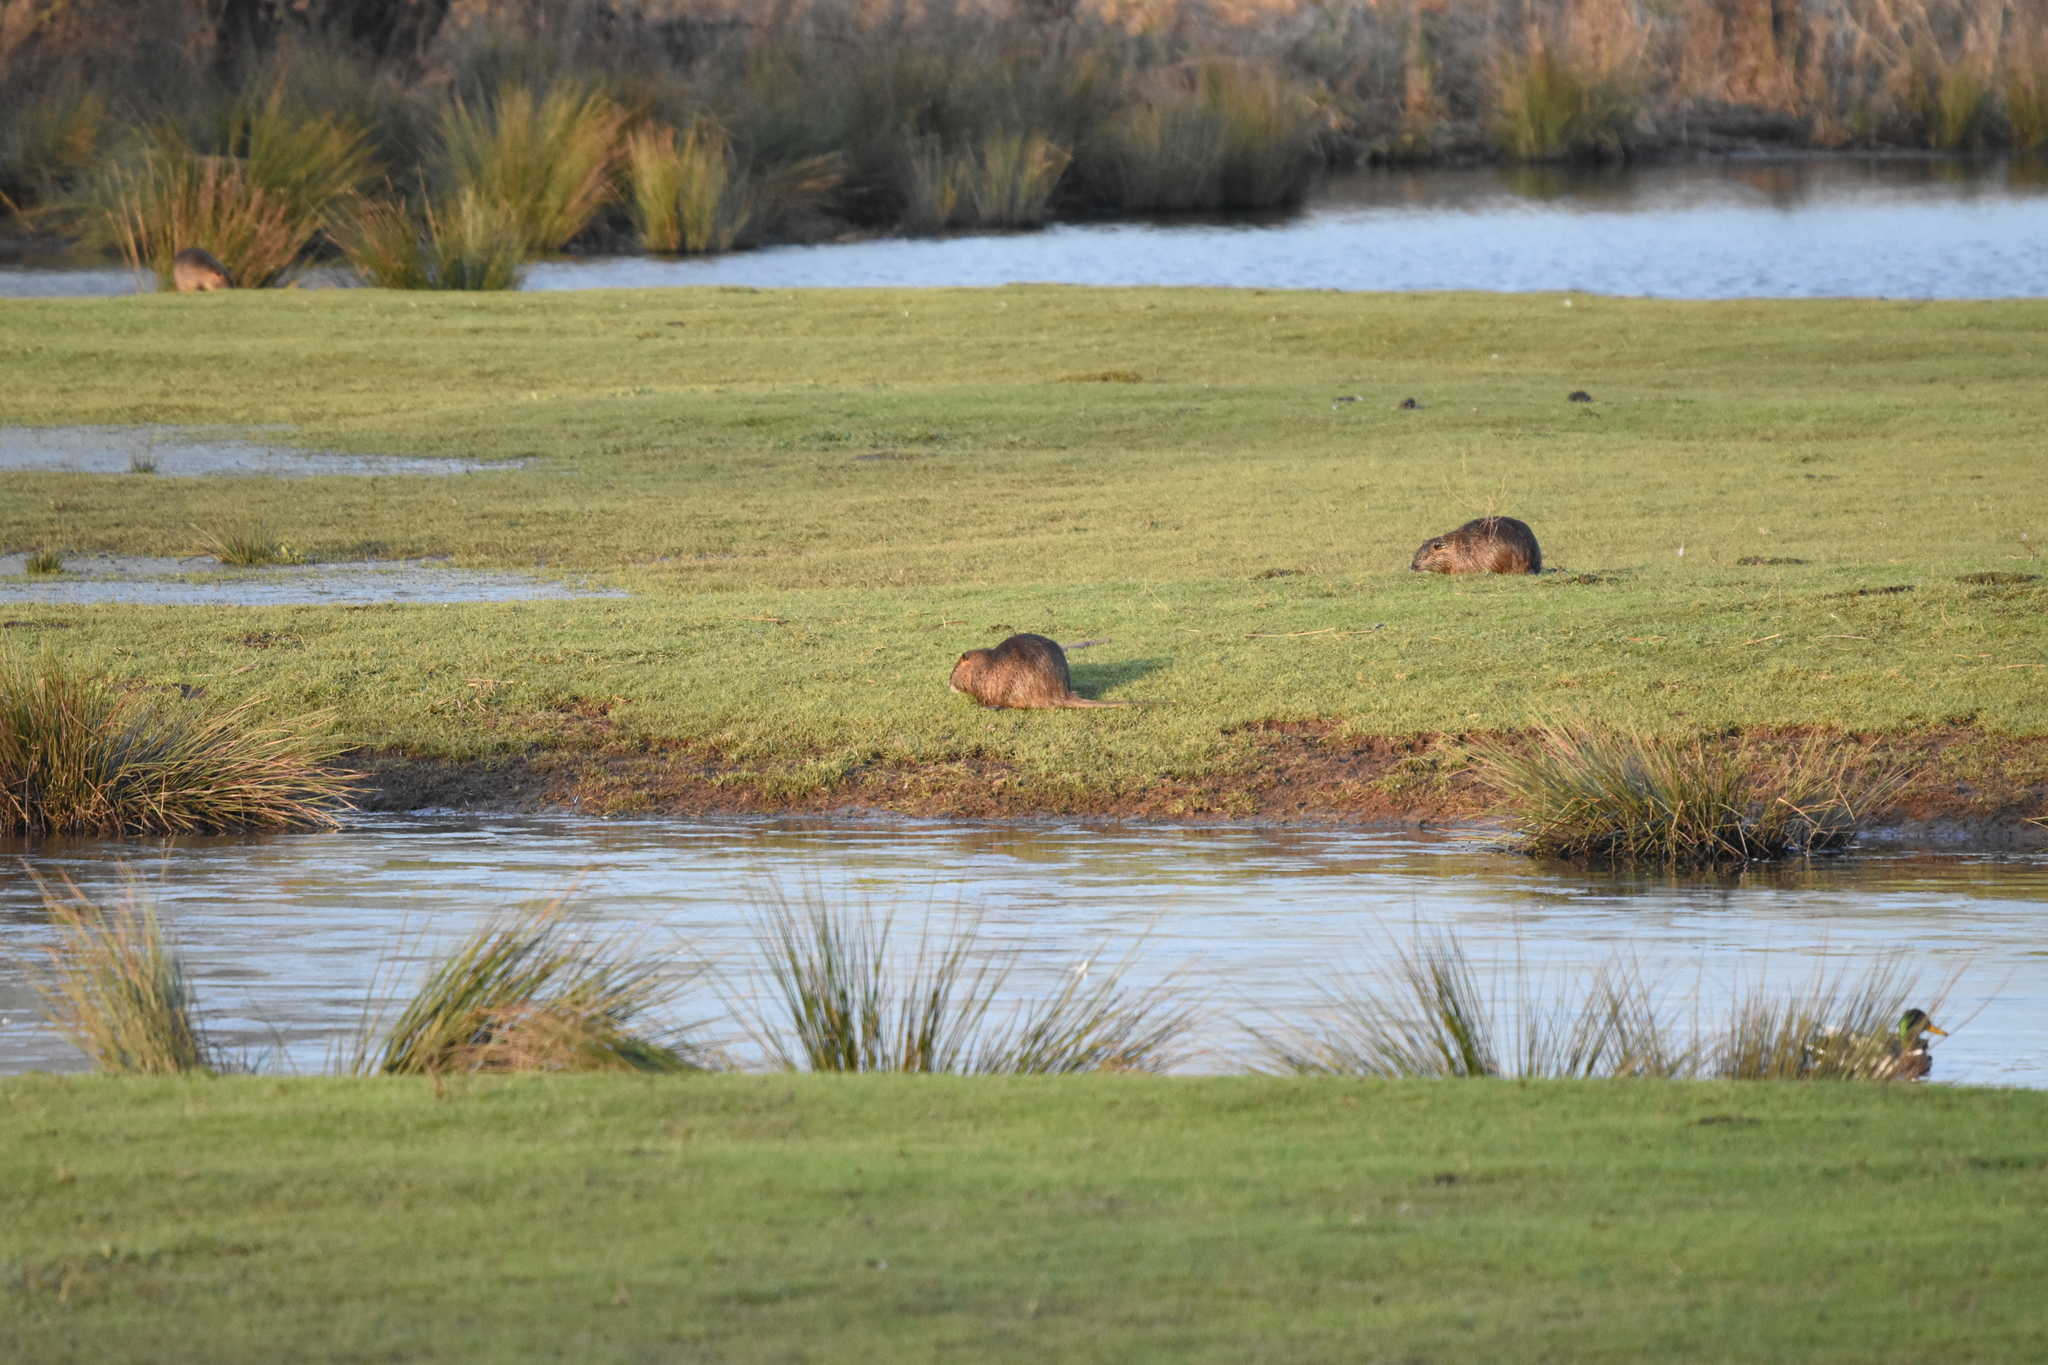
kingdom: Animalia
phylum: Chordata
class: Mammalia
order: Rodentia
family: Myocastoridae
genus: Myocastor
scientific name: Myocastor coypus
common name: Coypu
